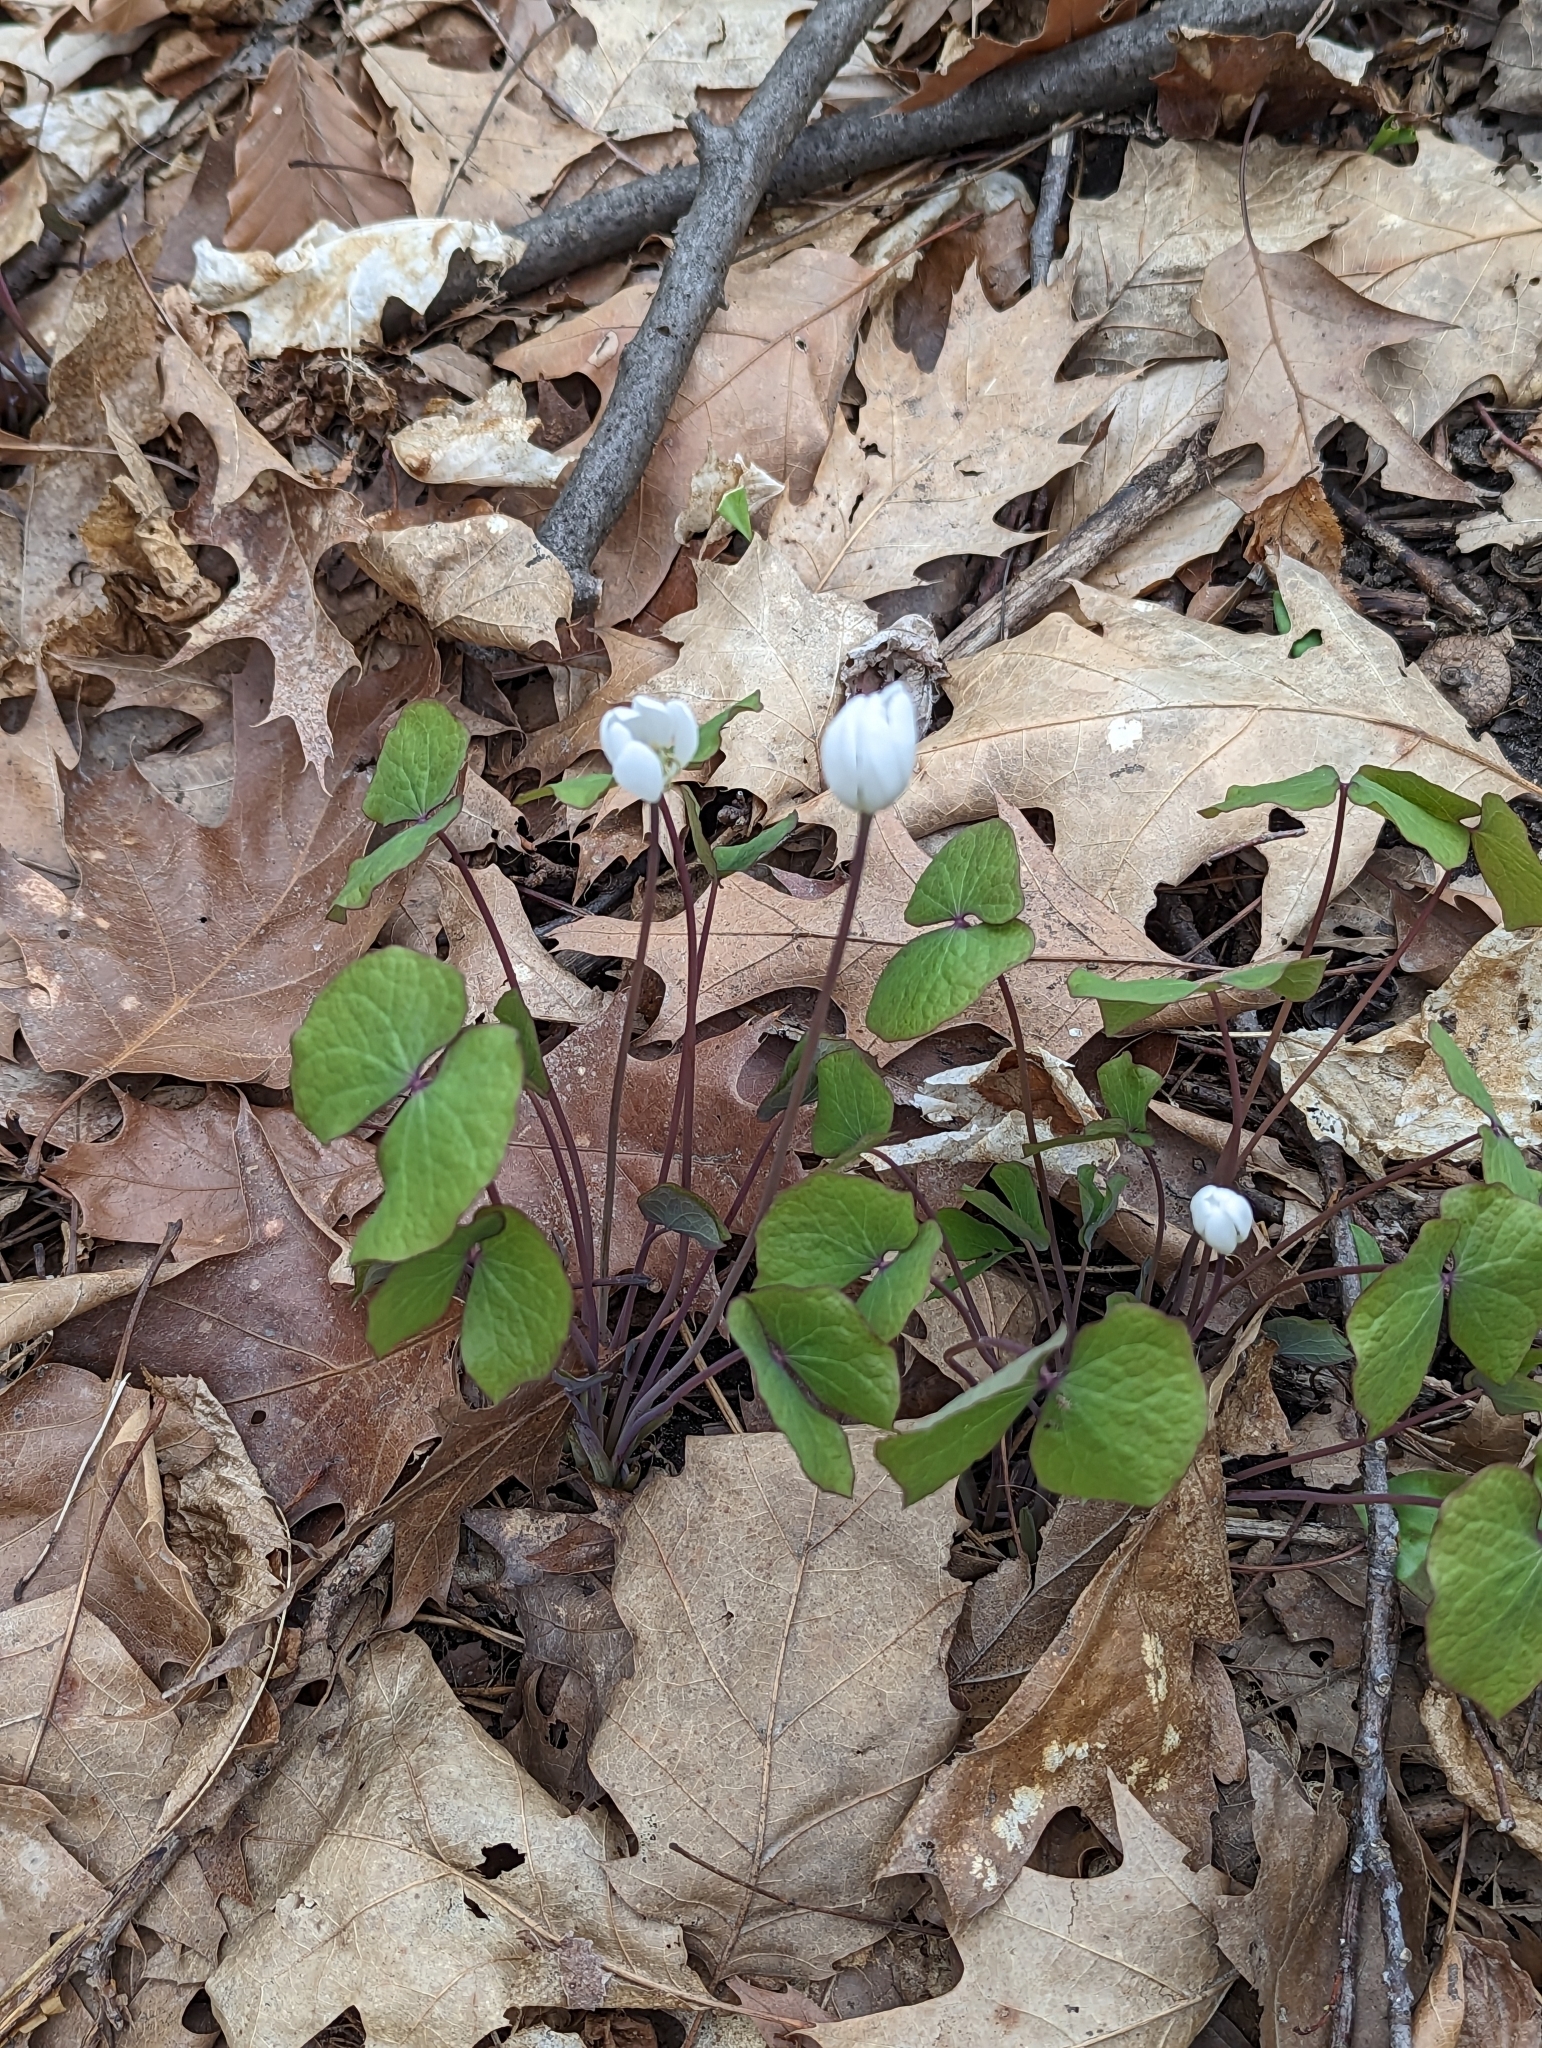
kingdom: Plantae
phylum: Tracheophyta
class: Magnoliopsida
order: Ranunculales
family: Berberidaceae
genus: Jeffersonia
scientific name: Jeffersonia diphylla
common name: Rheumatism-root
